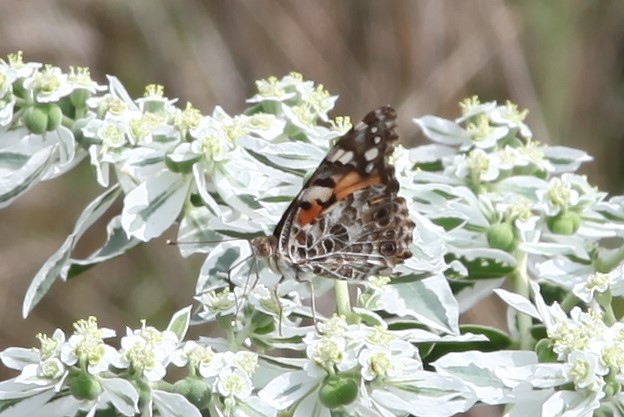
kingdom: Animalia
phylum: Arthropoda
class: Insecta
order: Lepidoptera
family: Nymphalidae
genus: Vanessa
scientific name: Vanessa cardui
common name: Painted lady
